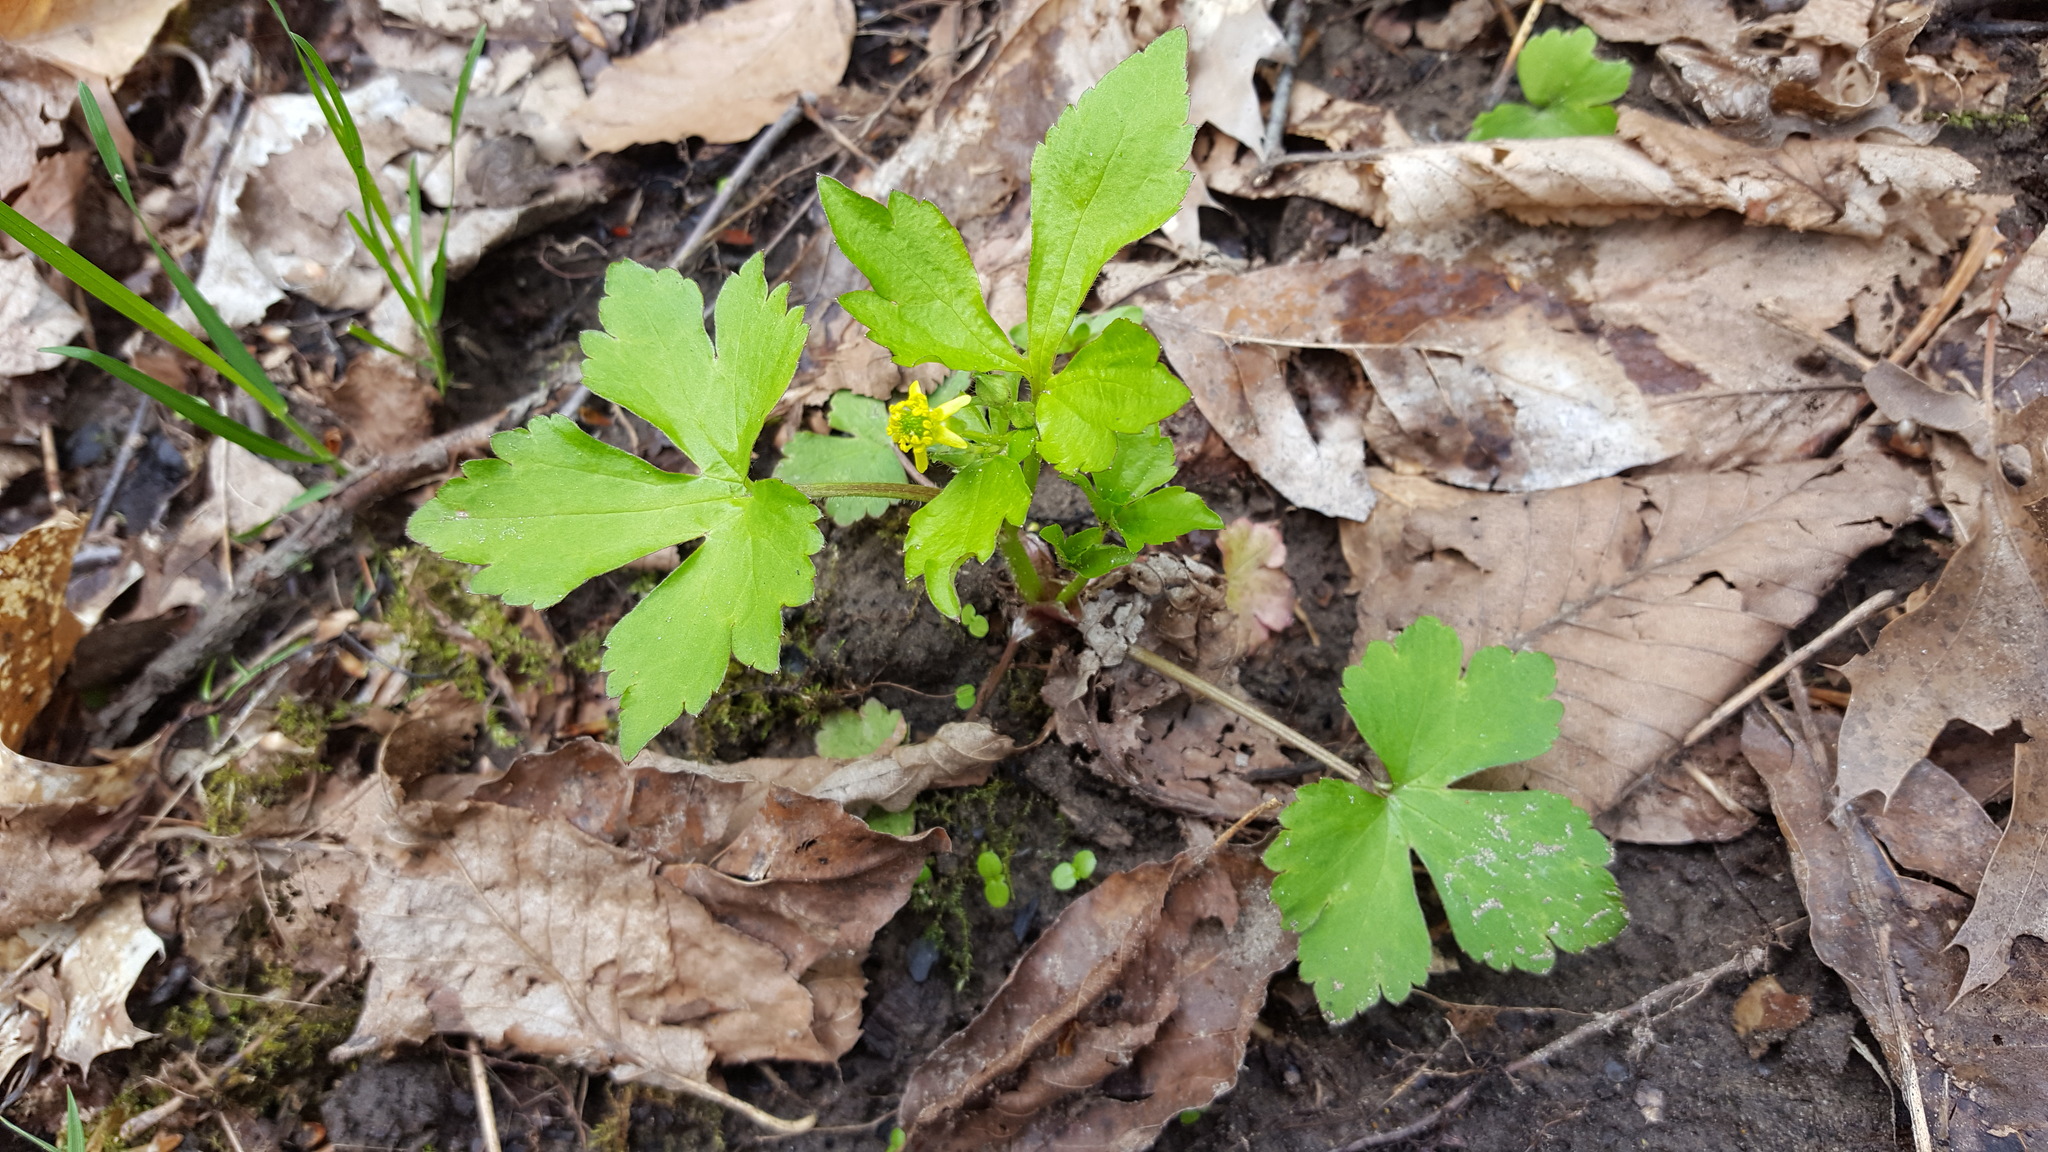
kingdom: Plantae
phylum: Tracheophyta
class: Magnoliopsida
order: Ranunculales
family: Ranunculaceae
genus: Ranunculus
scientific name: Ranunculus recurvatus
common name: Blisterwort
